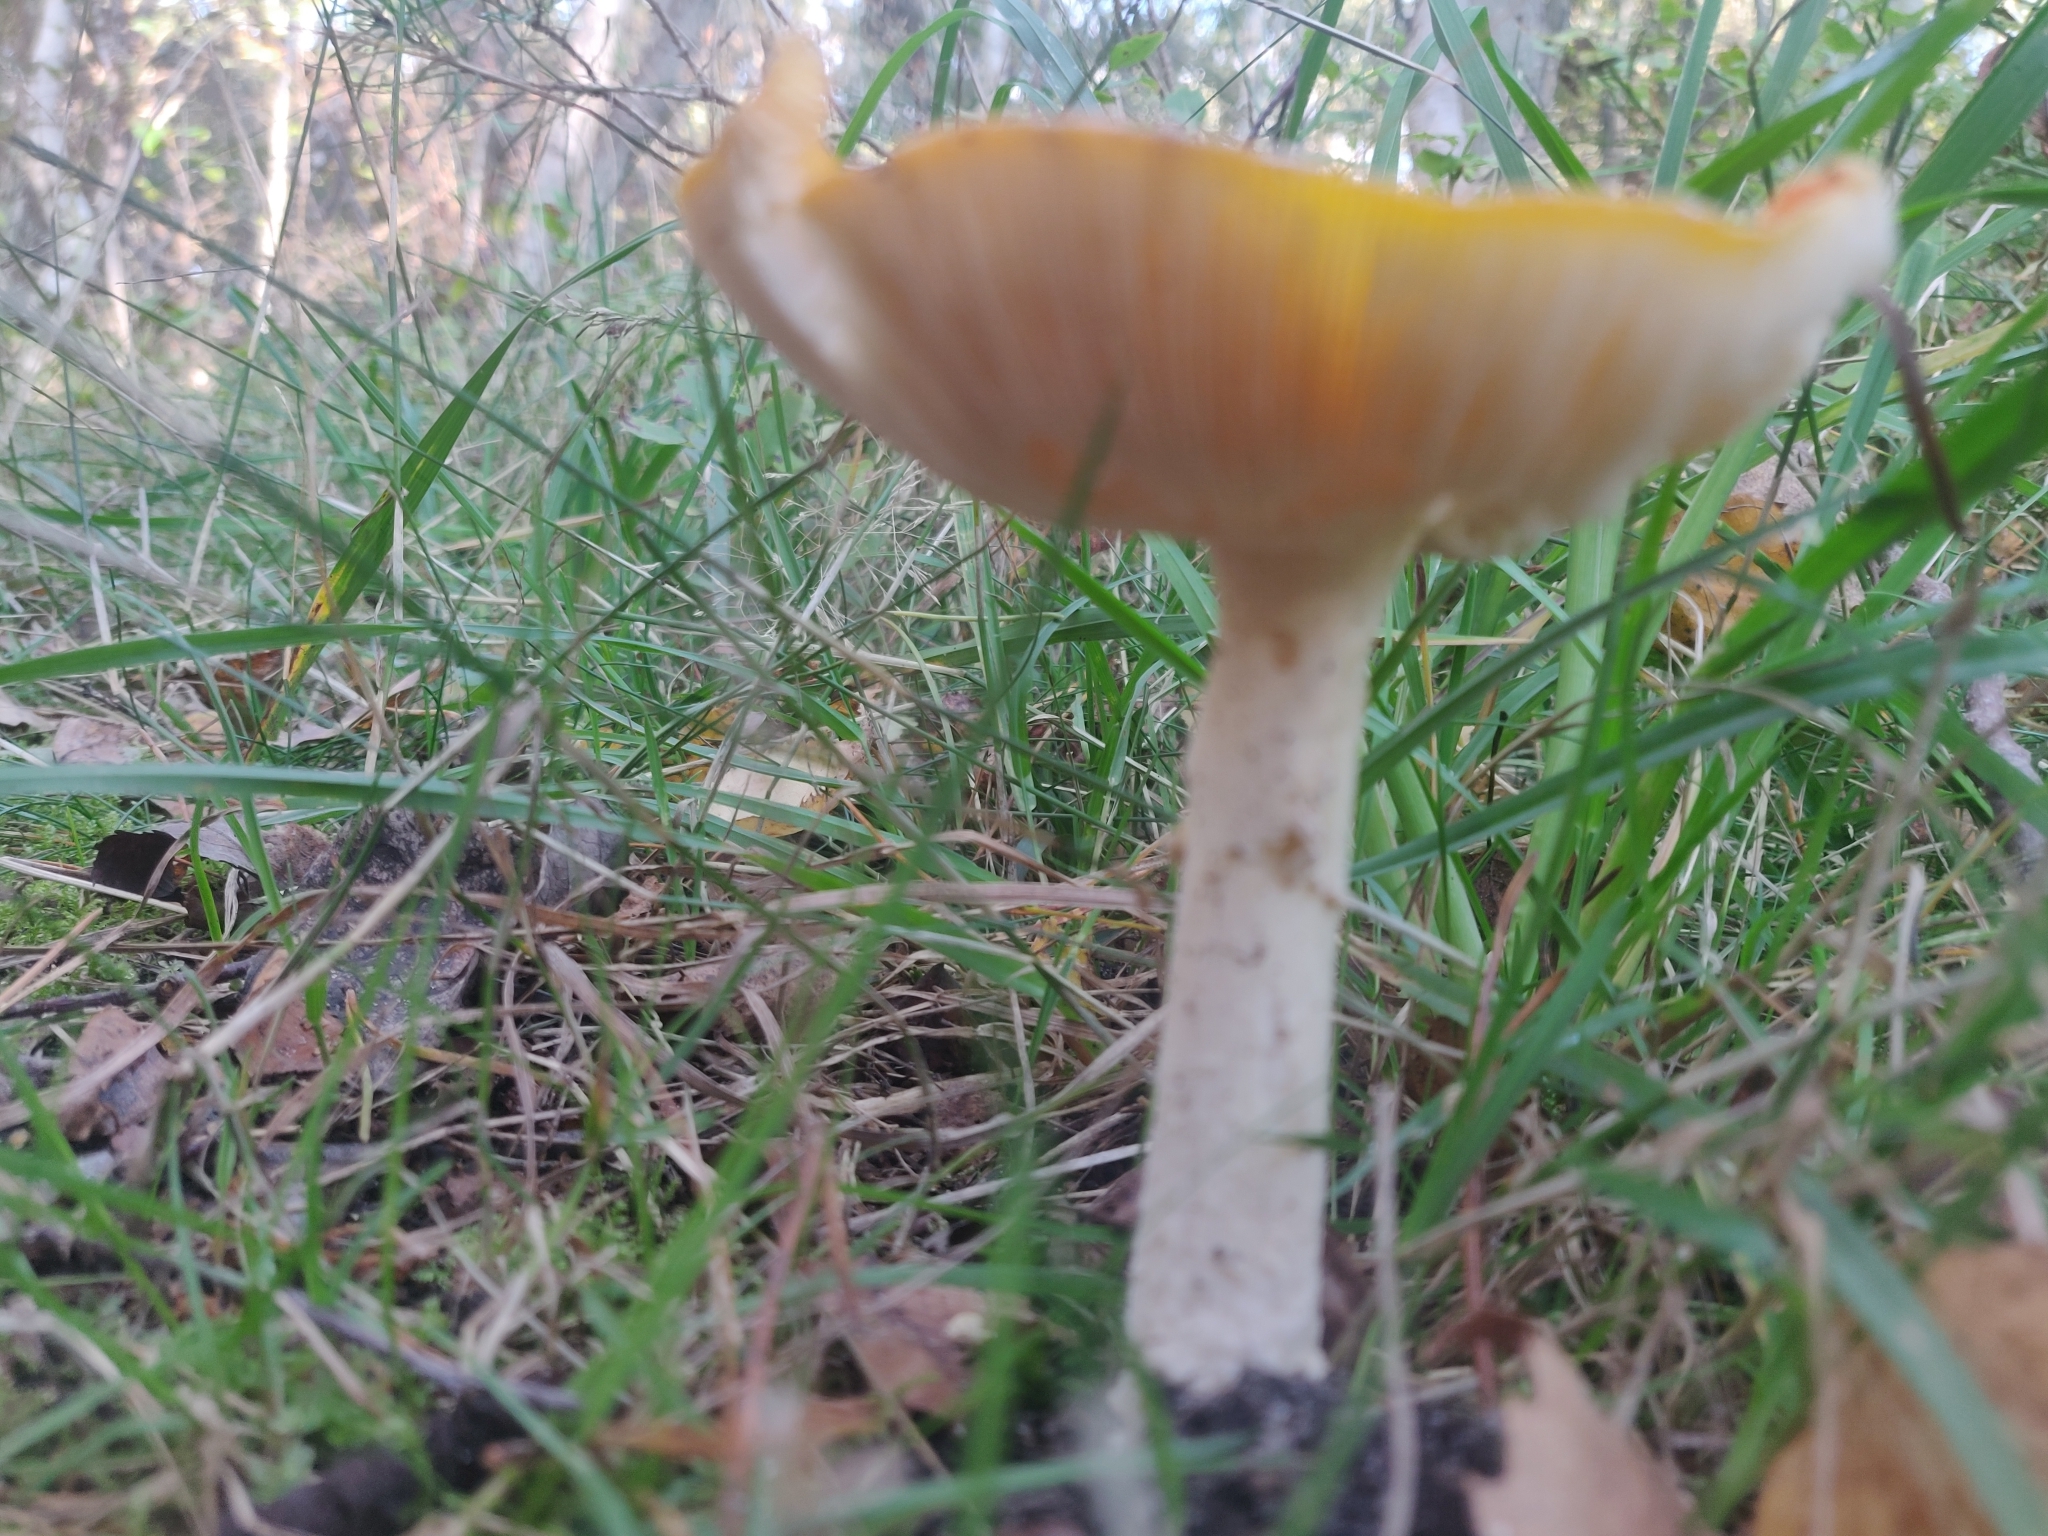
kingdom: Fungi
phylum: Basidiomycota
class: Agaricomycetes
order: Agaricales
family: Amanitaceae
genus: Amanita
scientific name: Amanita muscaria
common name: Fly agaric
